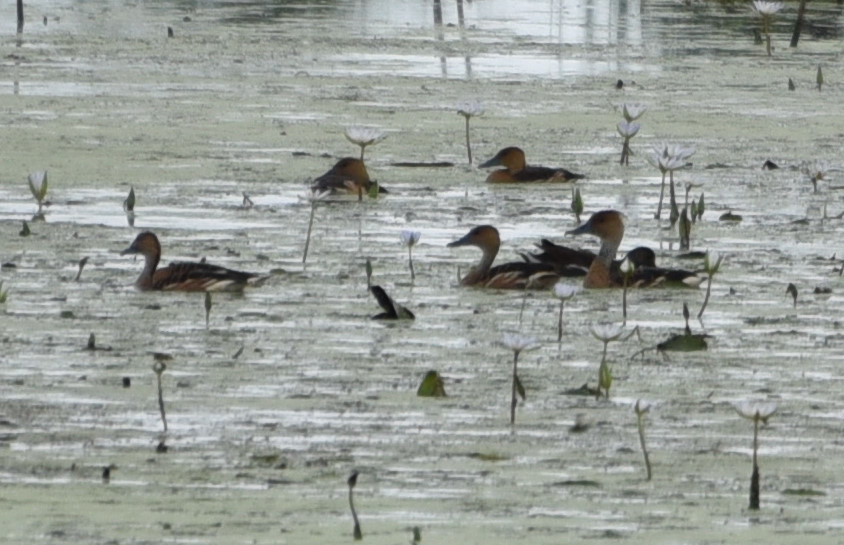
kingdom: Animalia
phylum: Chordata
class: Aves
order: Anseriformes
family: Anatidae
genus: Dendrocygna
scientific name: Dendrocygna bicolor
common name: Fulvous whistling duck
